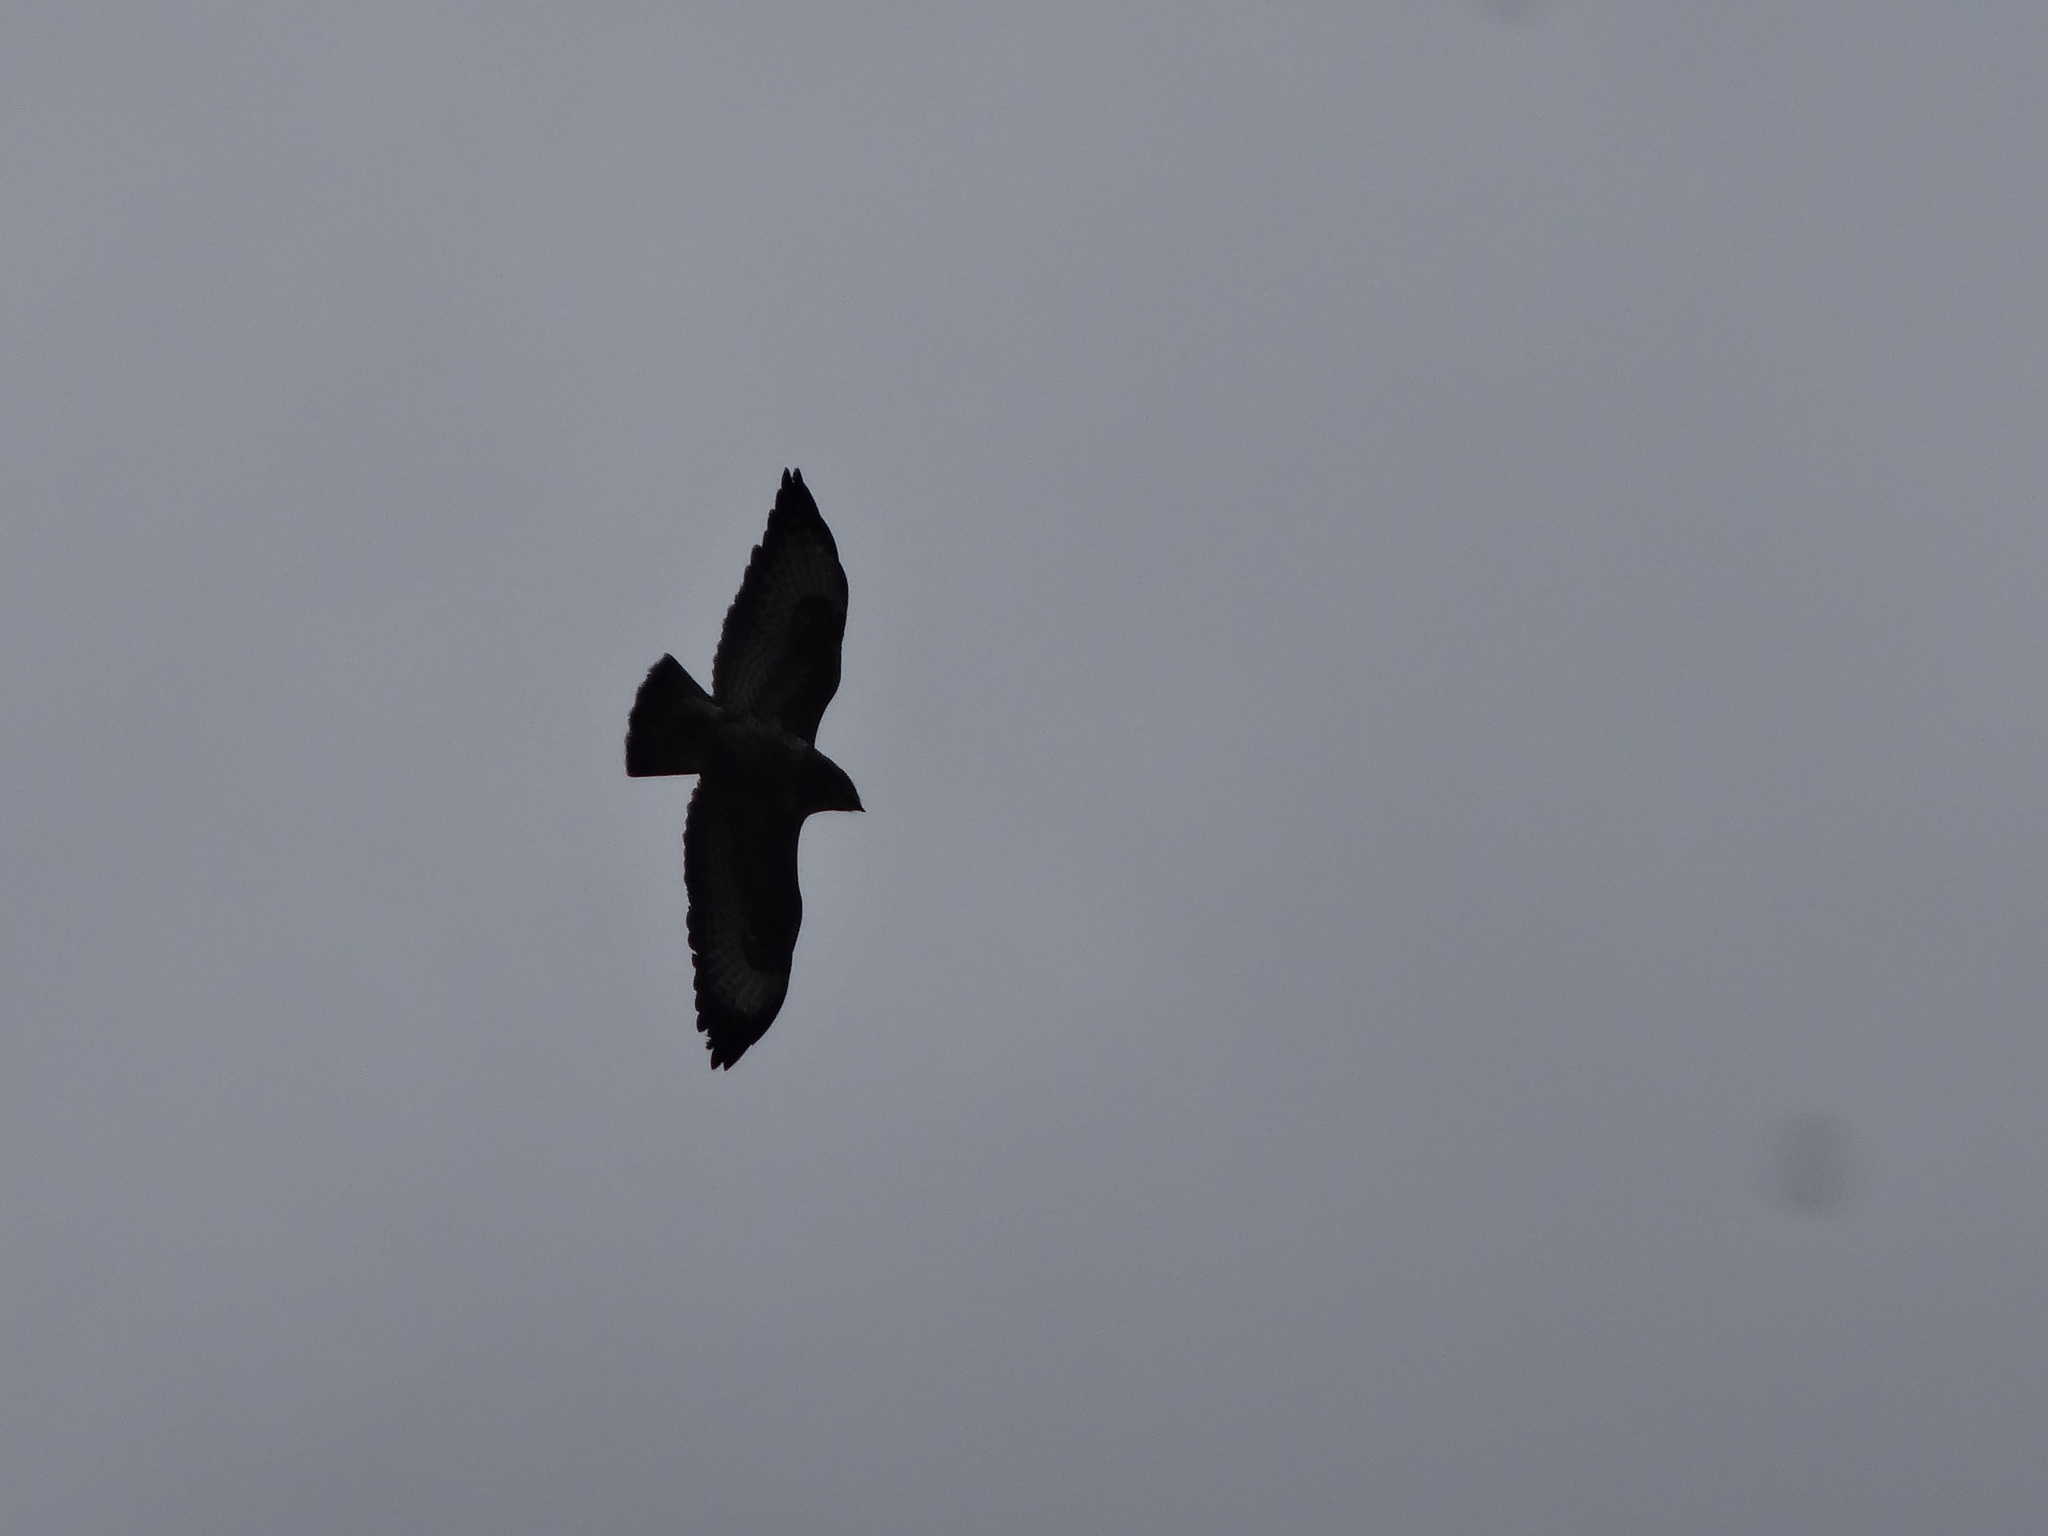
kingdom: Animalia
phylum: Chordata
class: Aves
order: Accipitriformes
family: Accipitridae
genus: Buteo
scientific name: Buteo buteo
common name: Common buzzard
